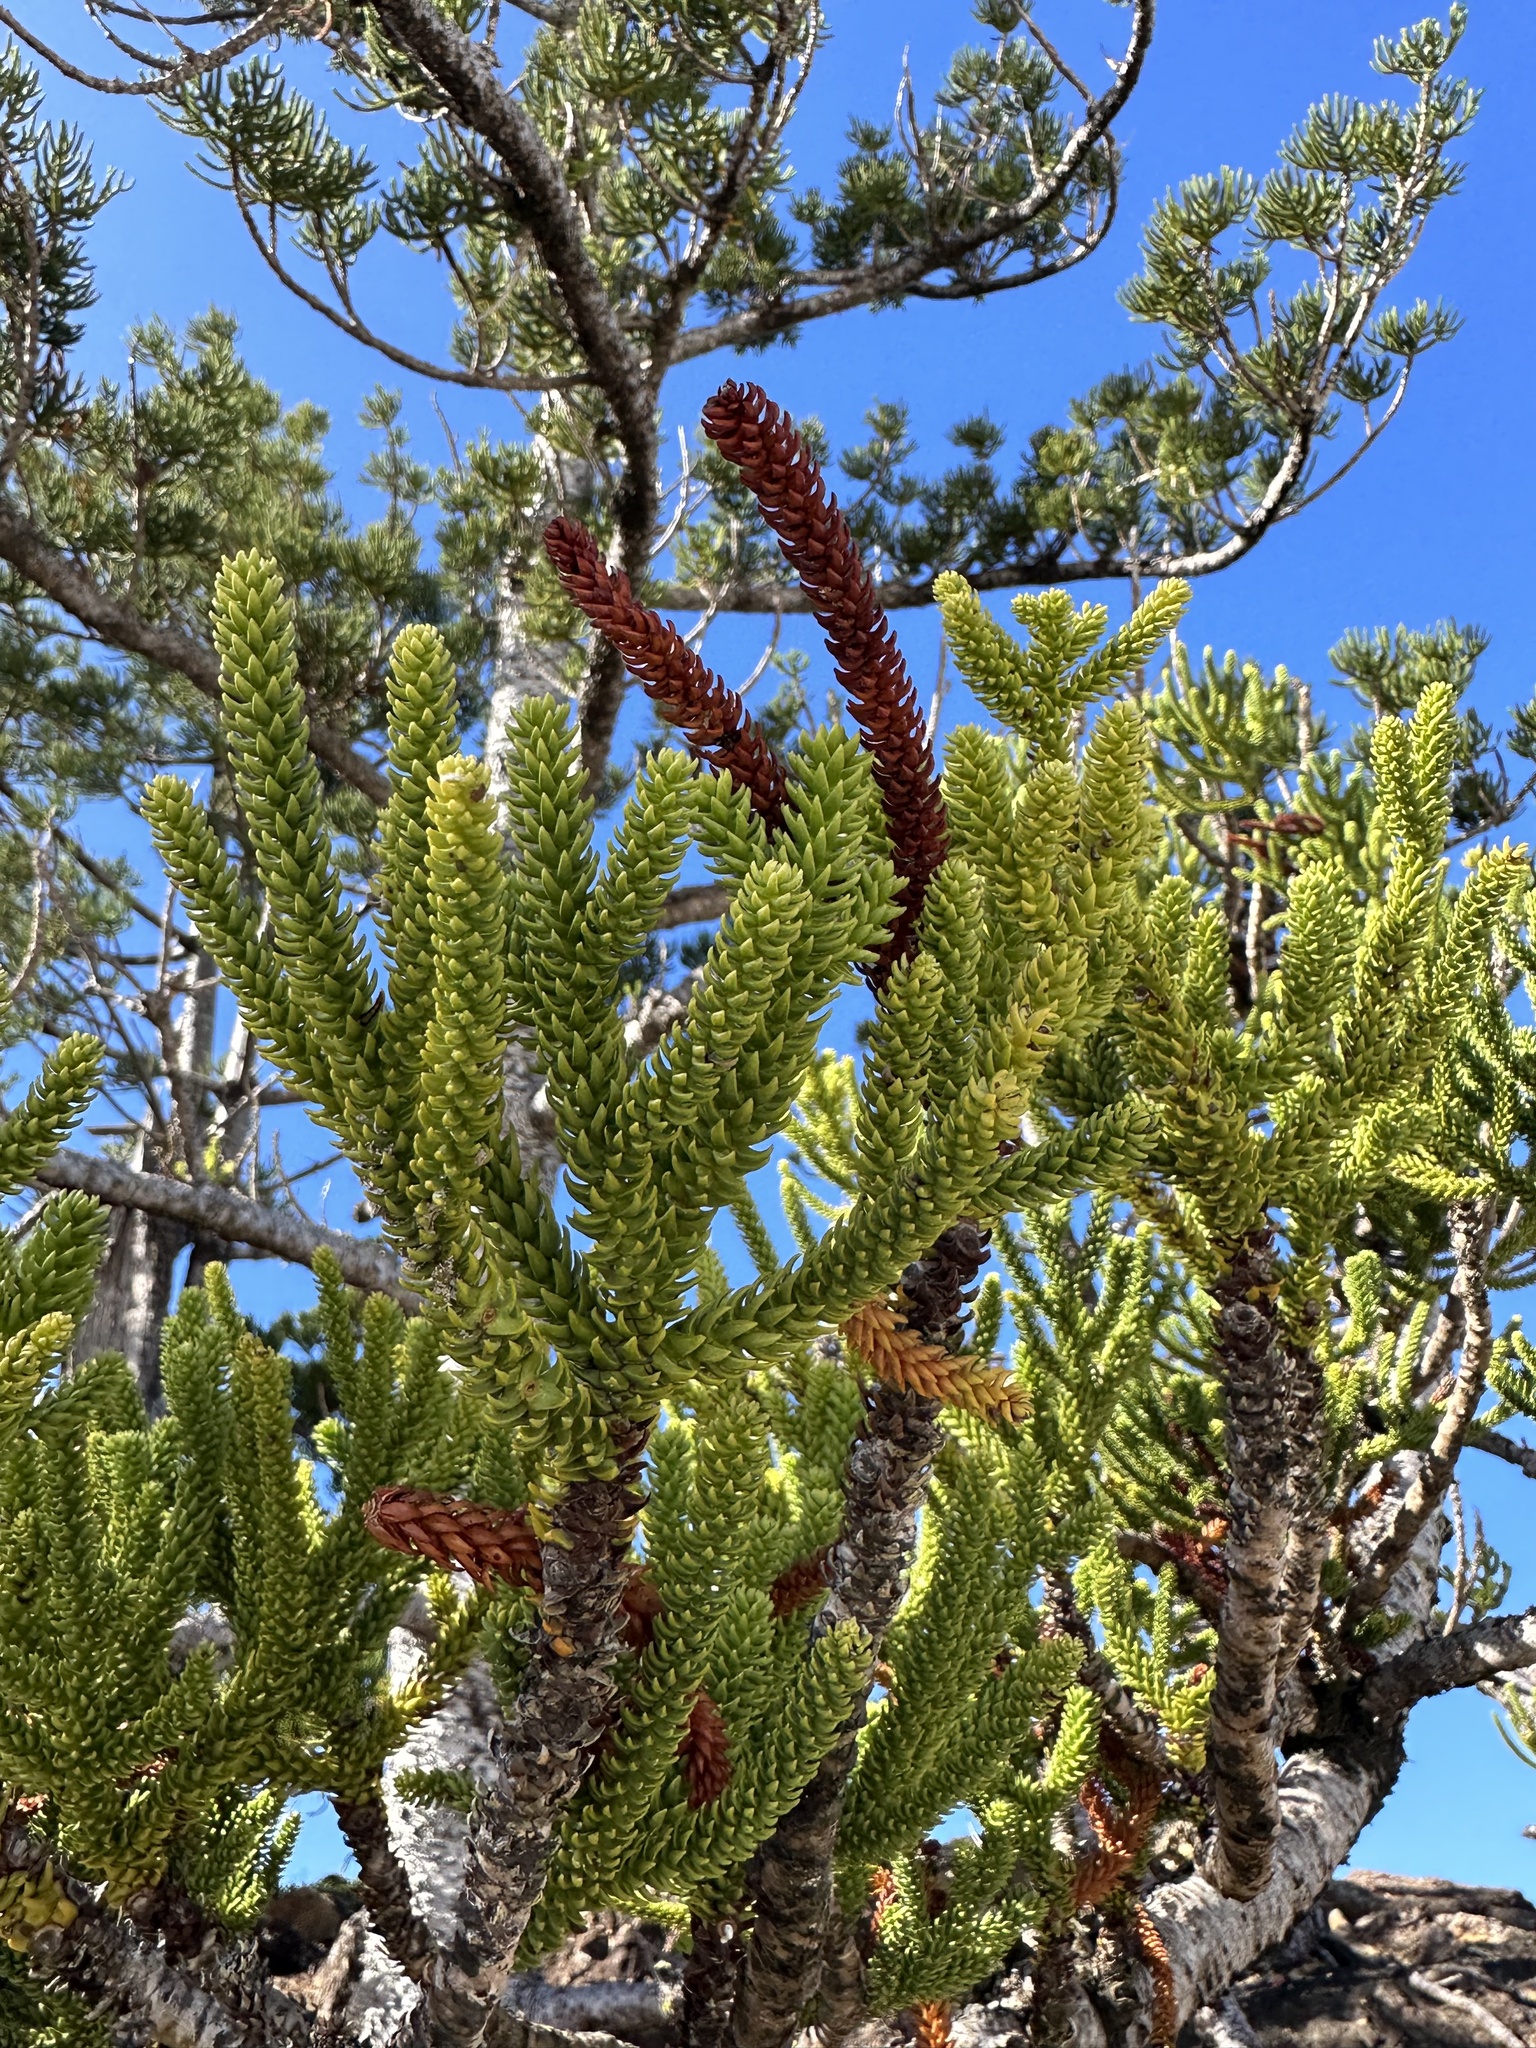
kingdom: Plantae
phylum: Tracheophyta
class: Pinopsida
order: Pinales
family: Araucariaceae
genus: Araucaria
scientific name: Araucaria cunninghamii
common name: Colonial pine
